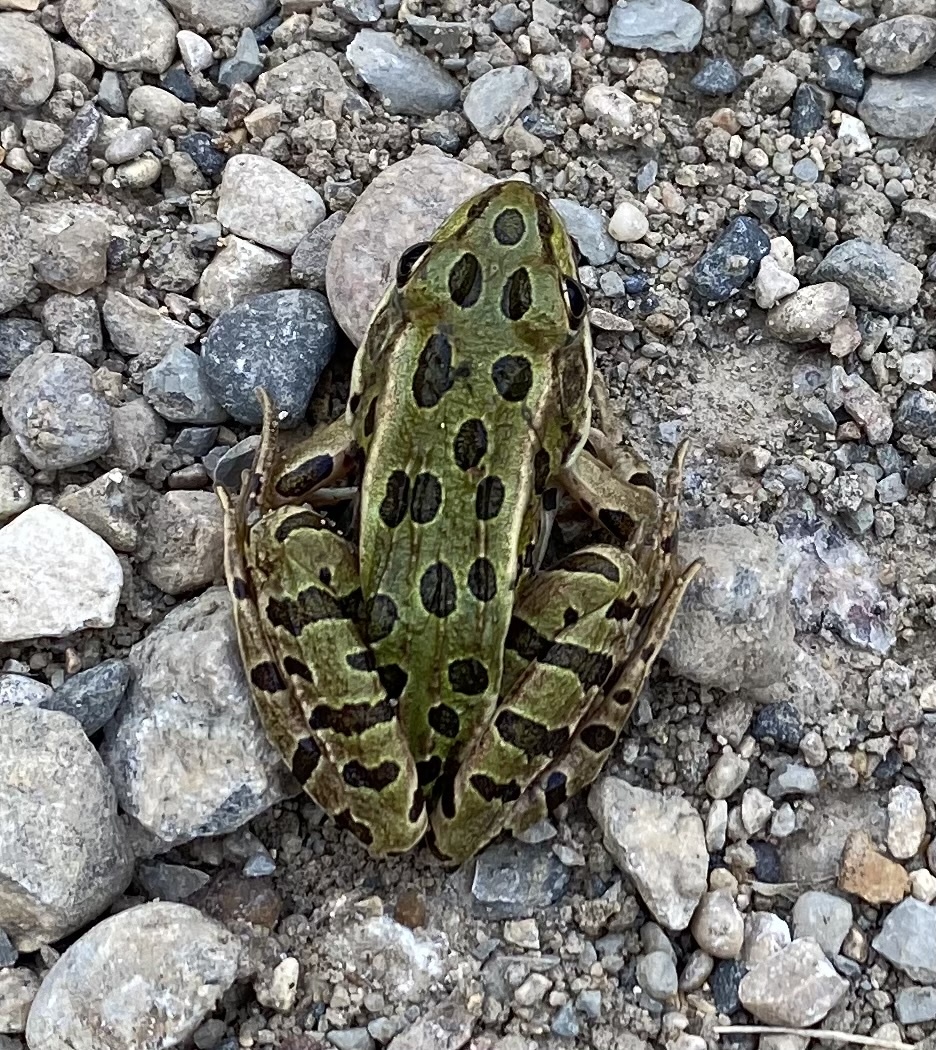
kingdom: Animalia
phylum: Chordata
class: Amphibia
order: Anura
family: Ranidae
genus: Lithobates
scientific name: Lithobates pipiens
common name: Northern leopard frog
